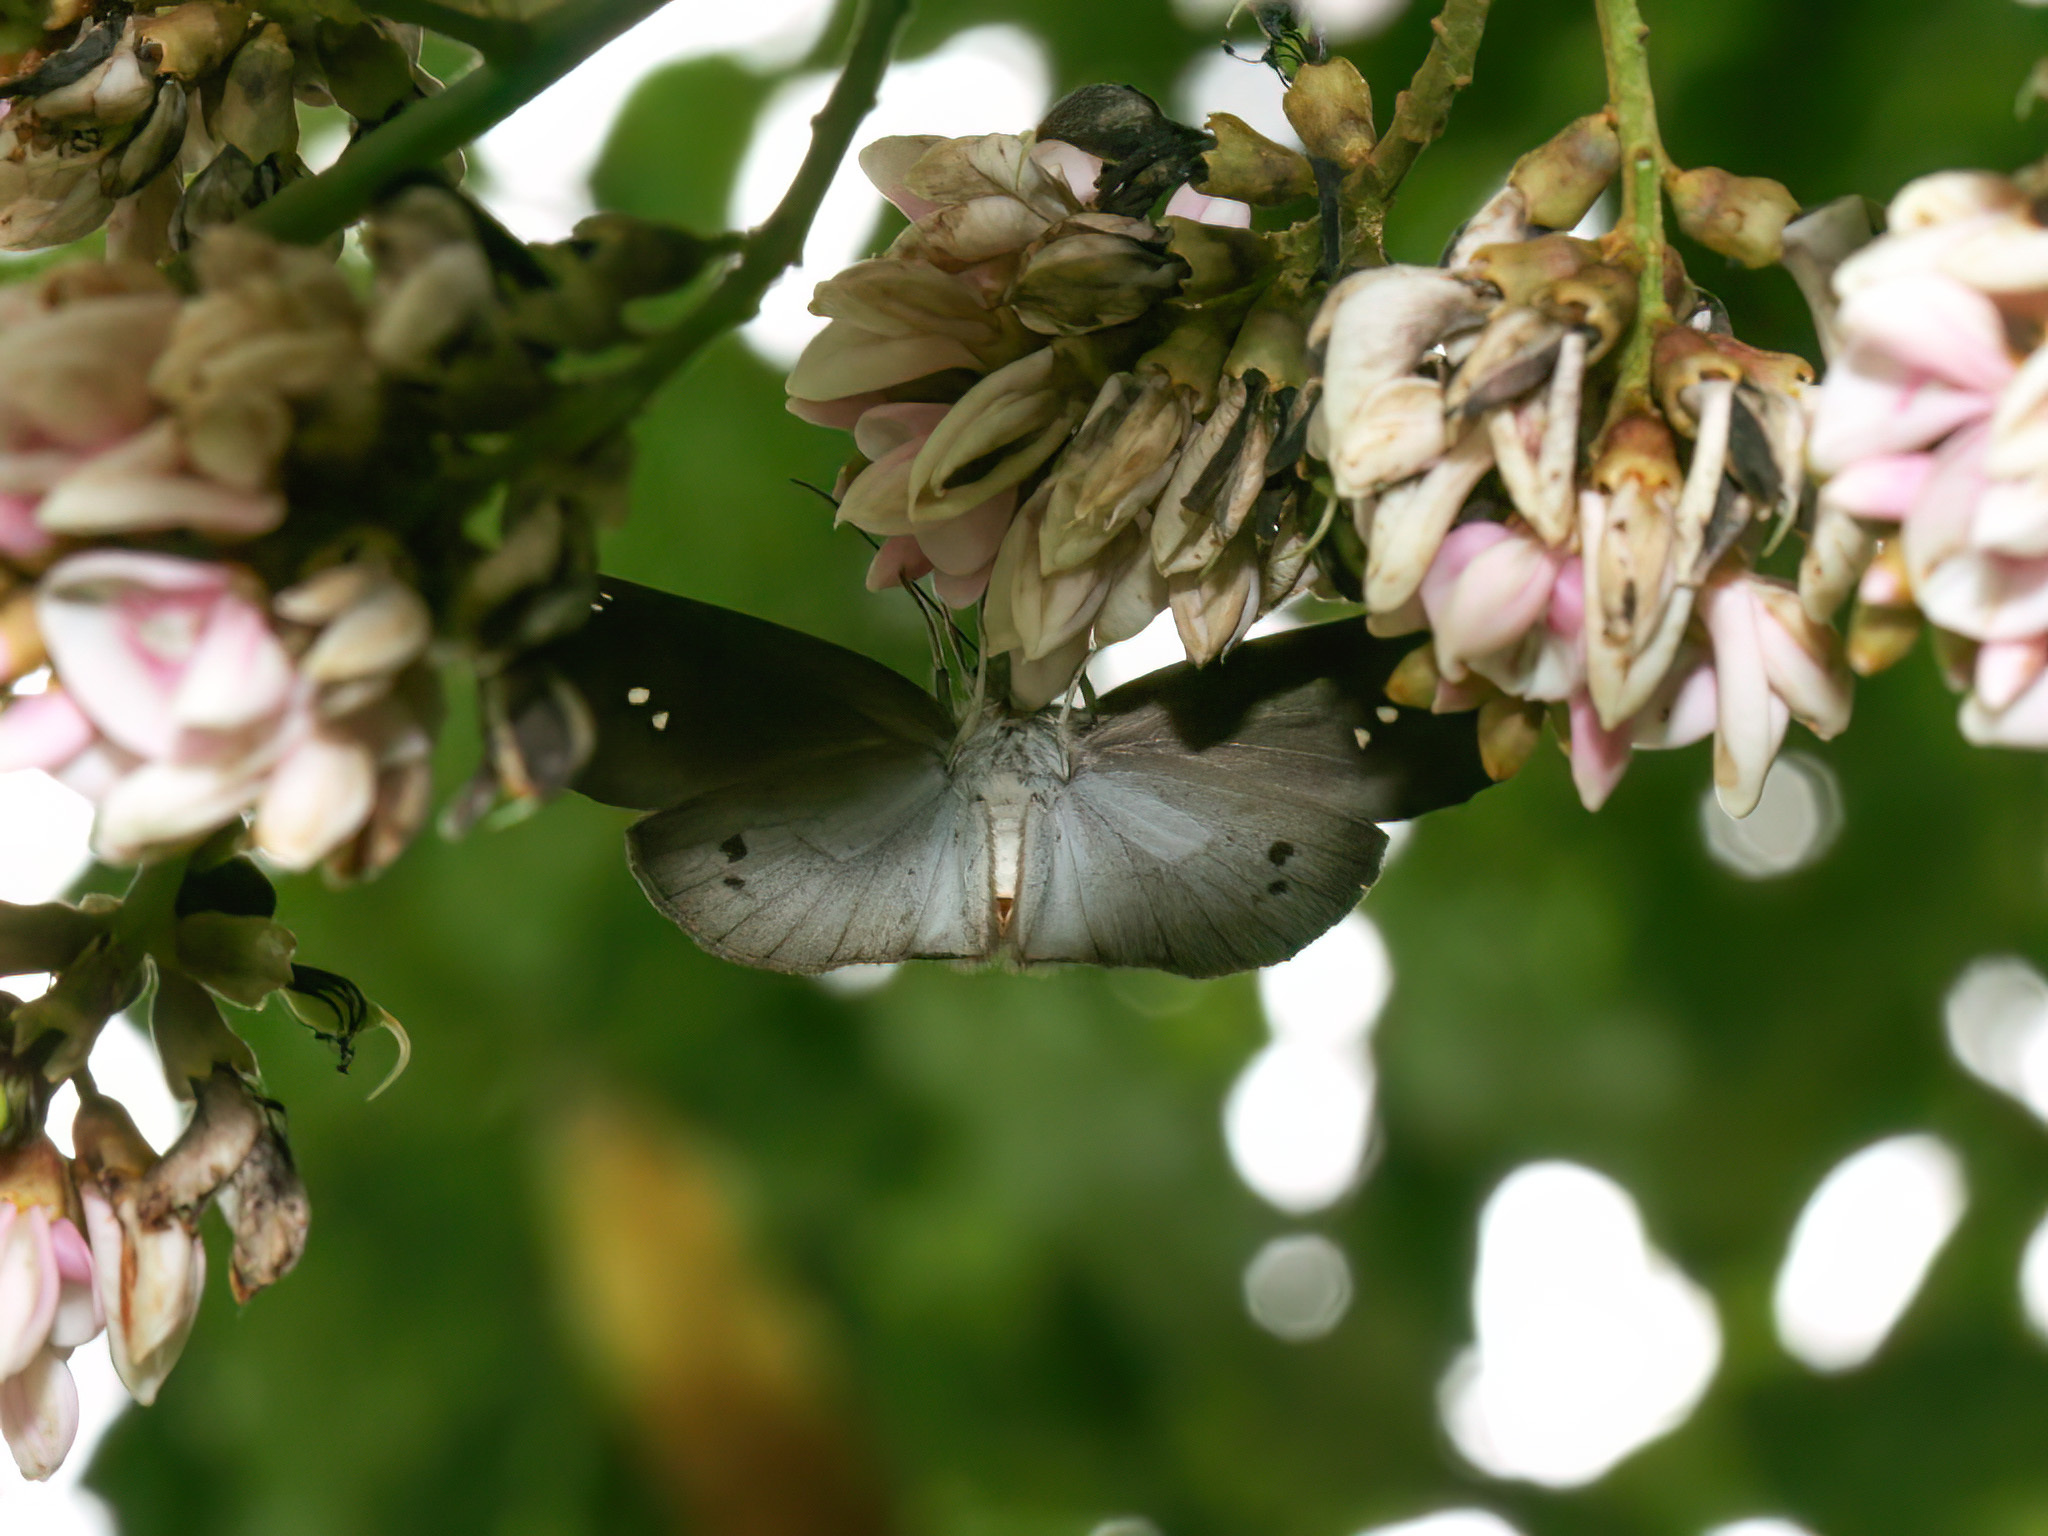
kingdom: Animalia
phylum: Arthropoda
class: Insecta
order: Lepidoptera
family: Hesperiidae
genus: Tagiades
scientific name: Tagiades japetus
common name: Pied flat
